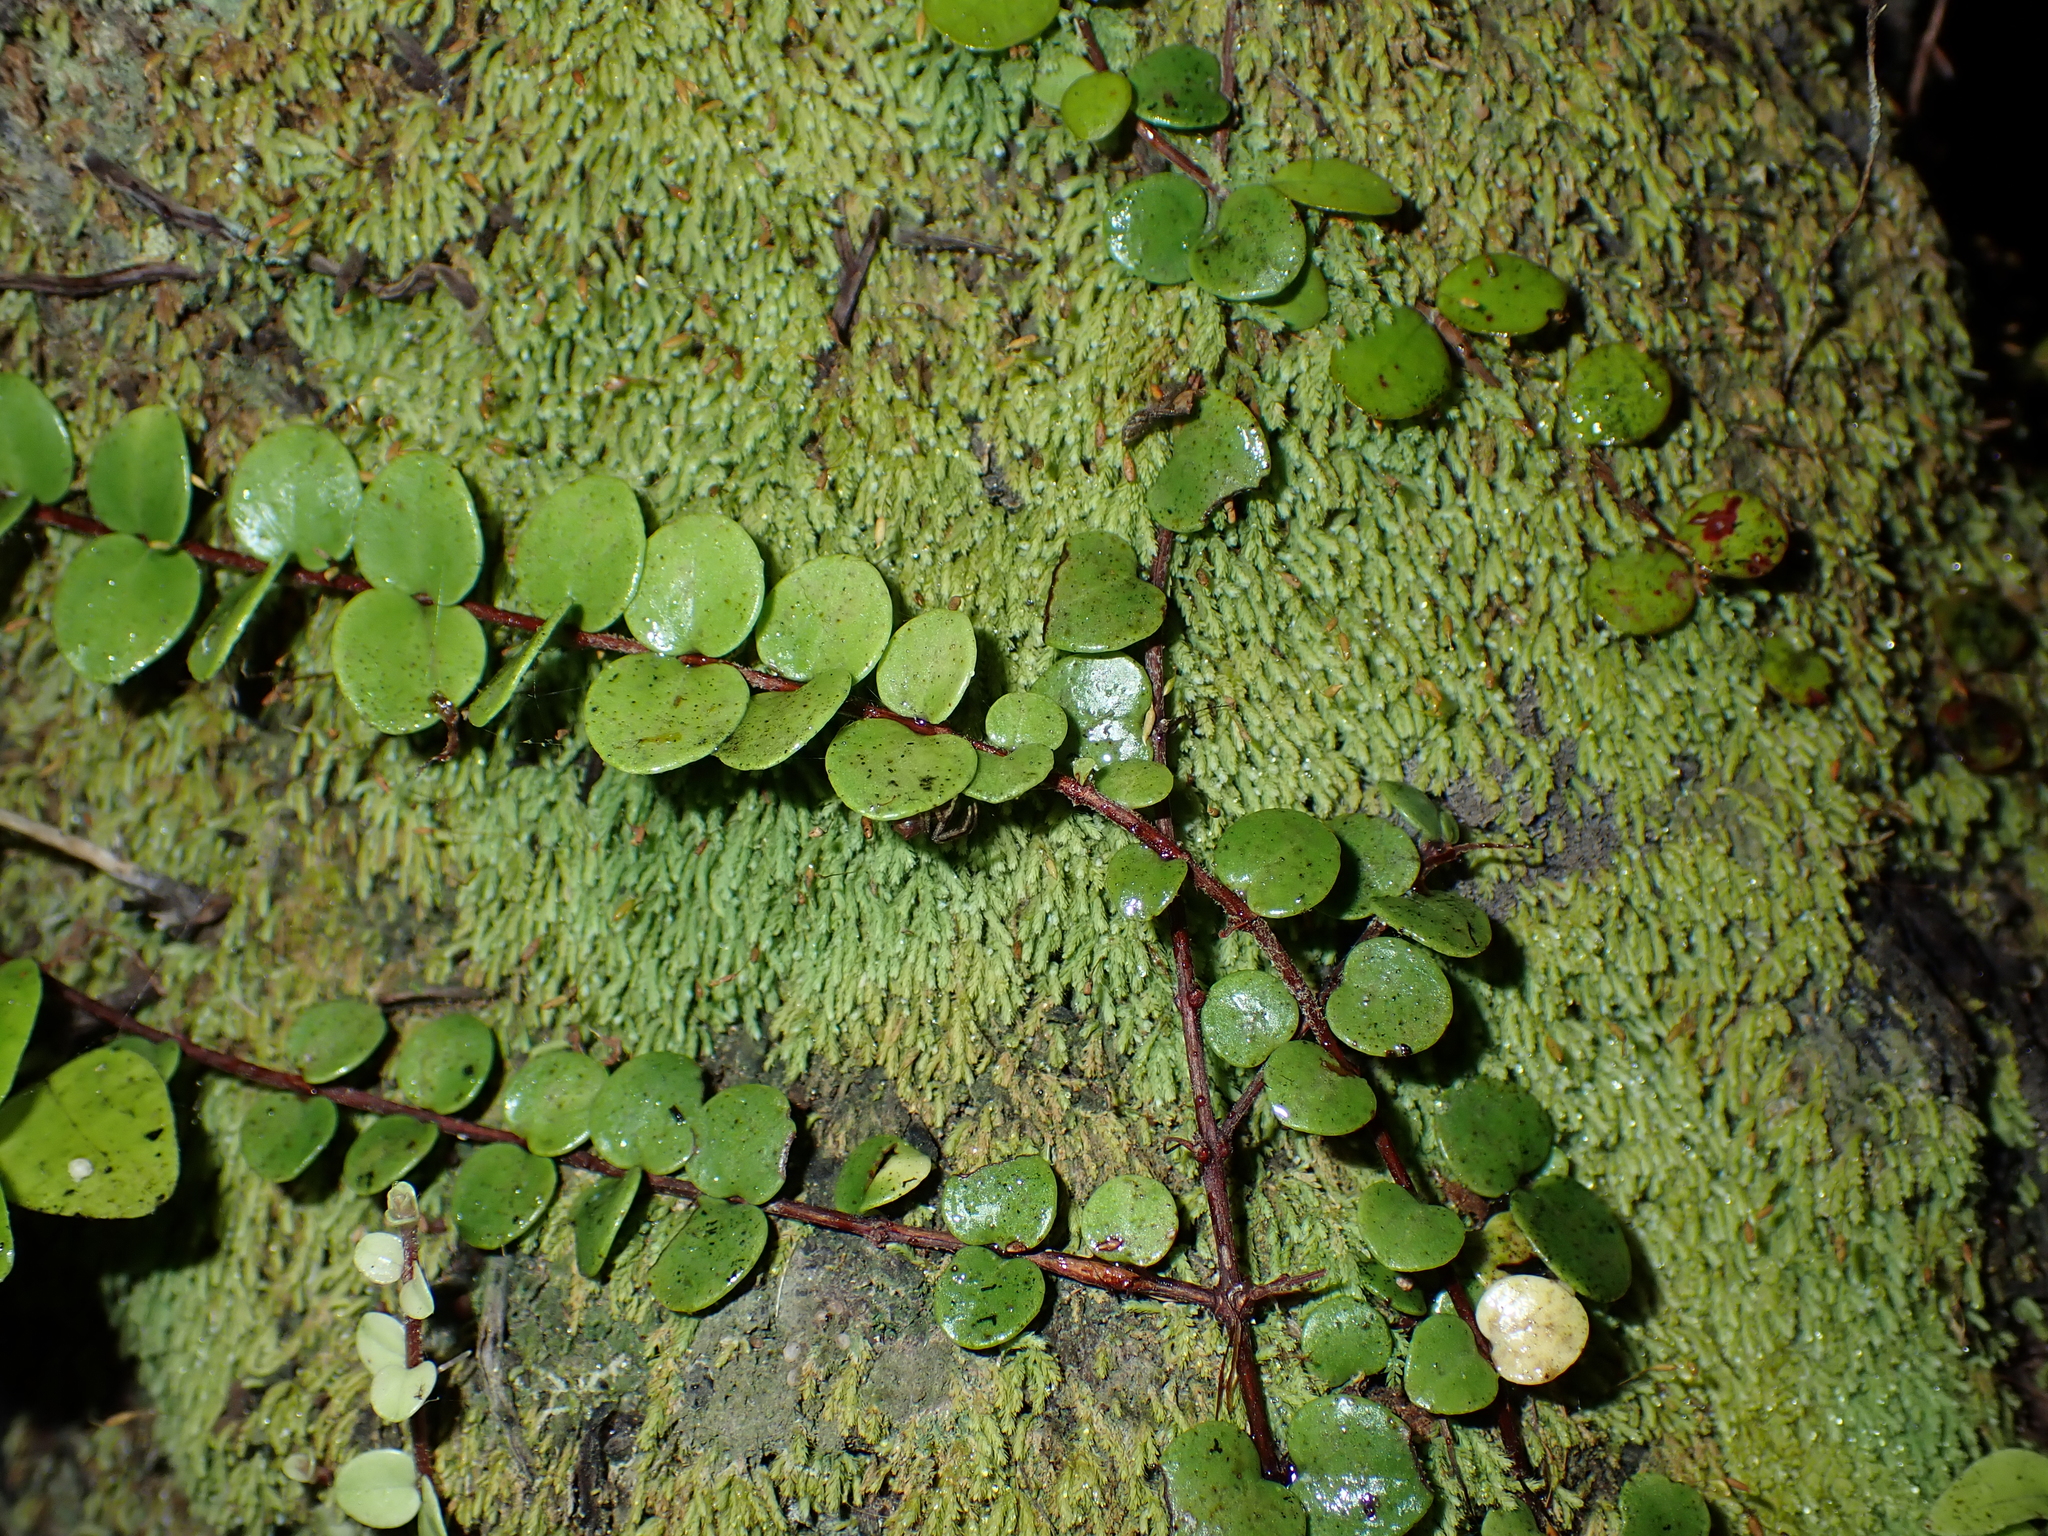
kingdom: Plantae
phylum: Tracheophyta
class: Magnoliopsida
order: Myrtales
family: Myrtaceae
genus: Metrosideros
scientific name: Metrosideros perforata
